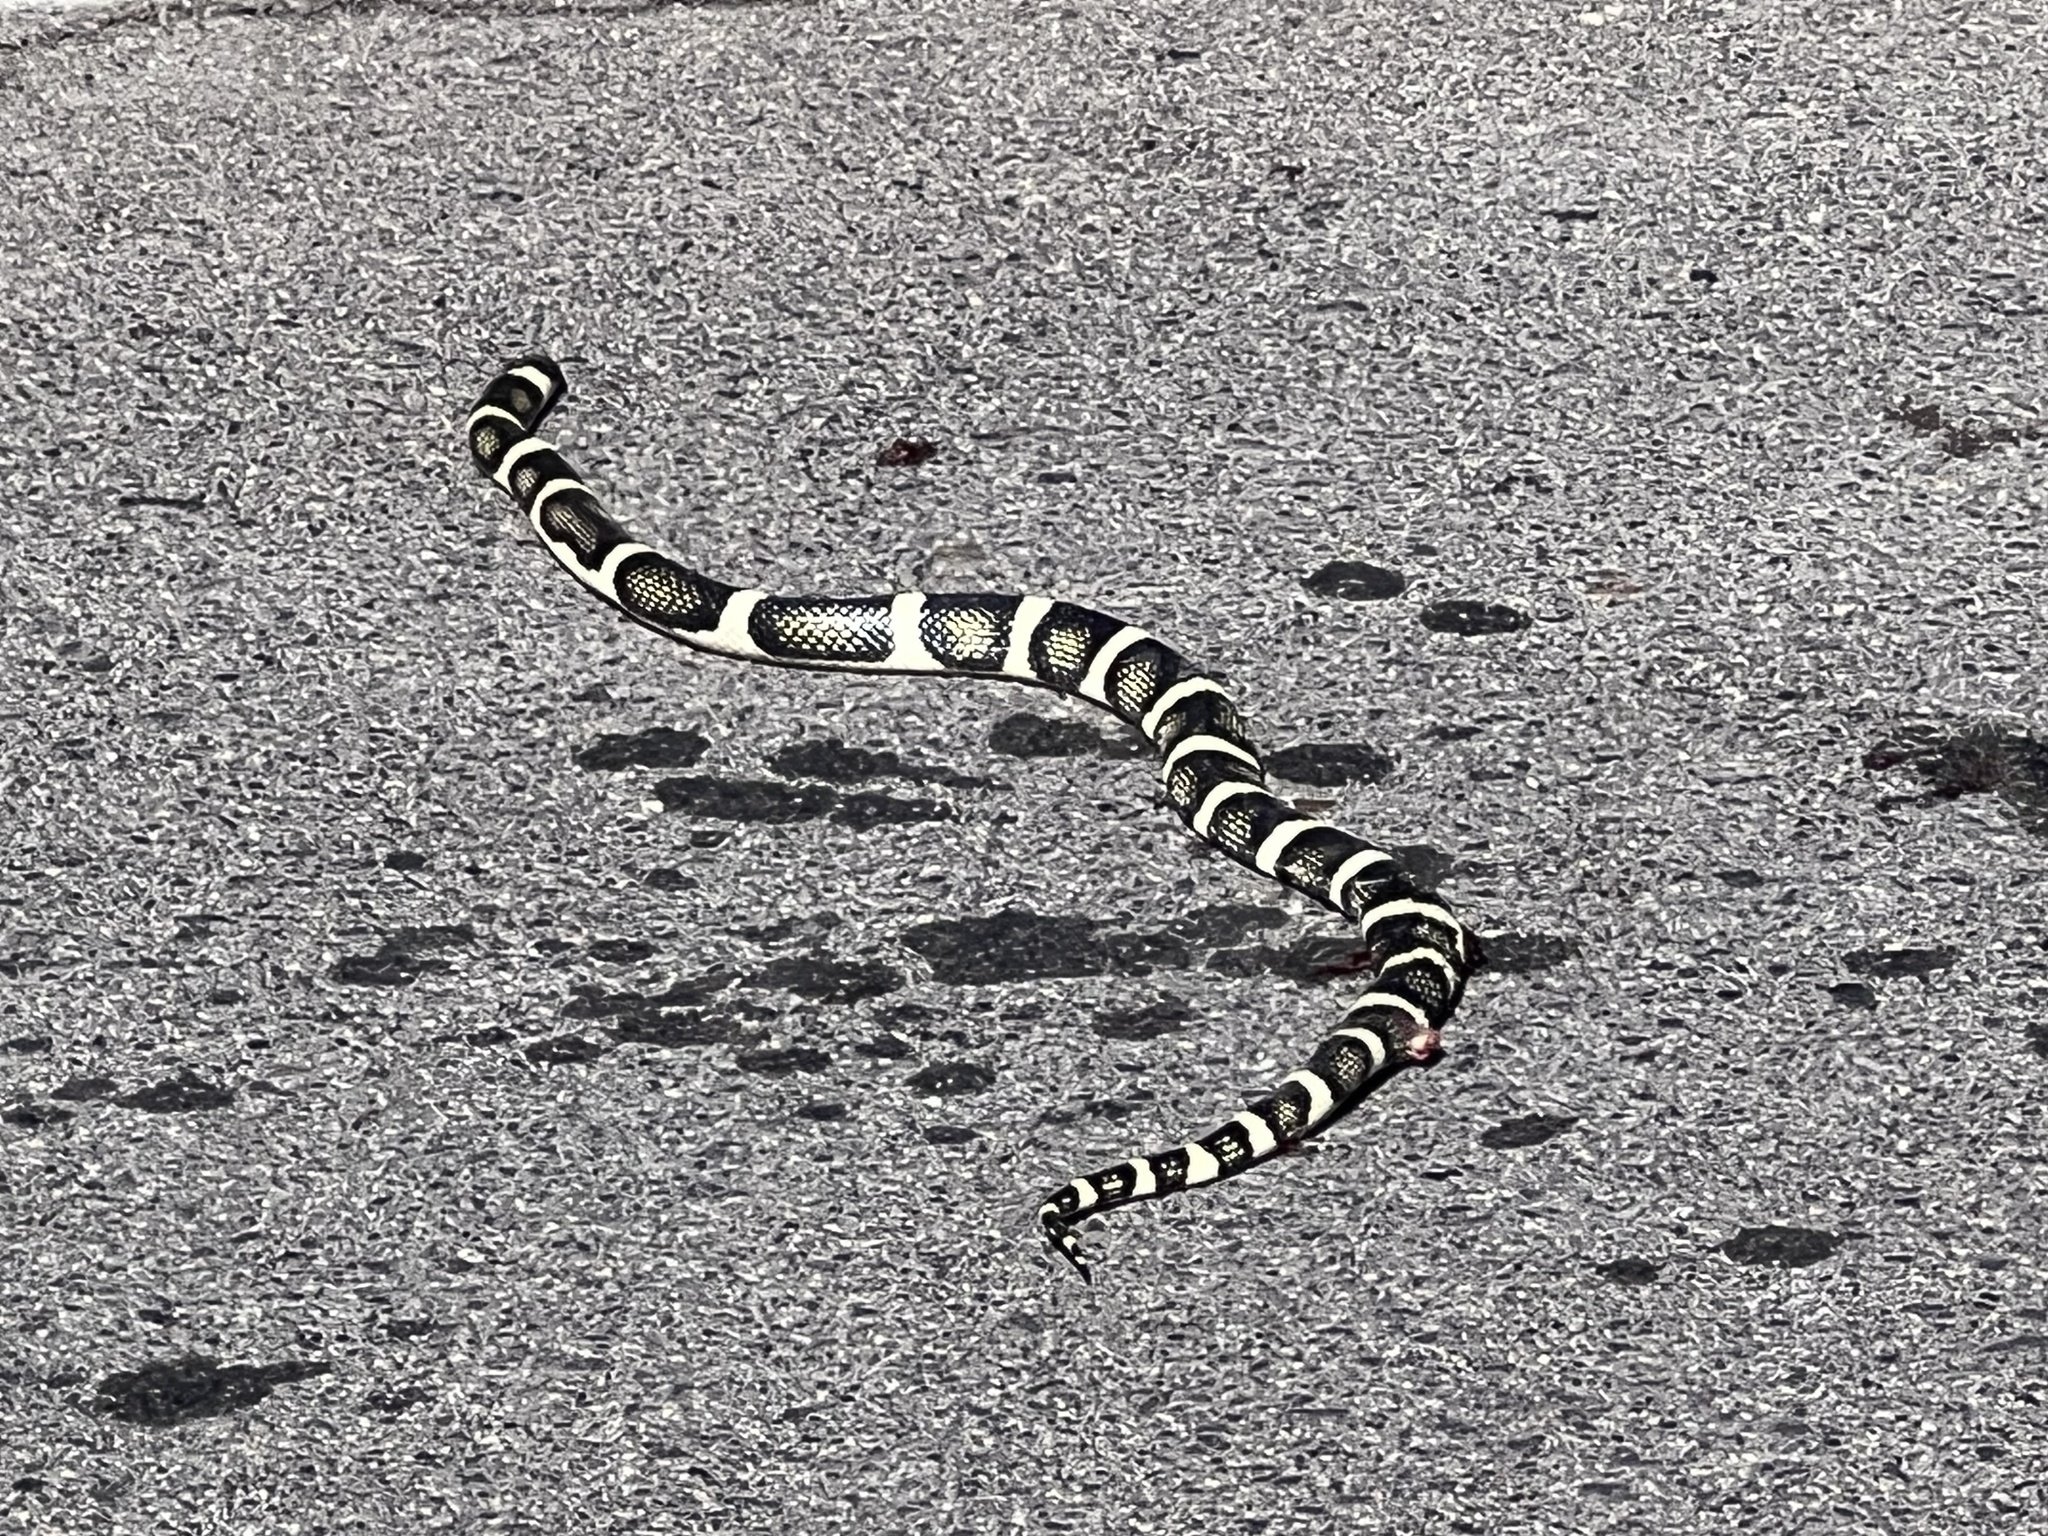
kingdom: Animalia
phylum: Chordata
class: Squamata
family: Colubridae
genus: Rhinocheilus
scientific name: Rhinocheilus lecontei
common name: Longnose snake
